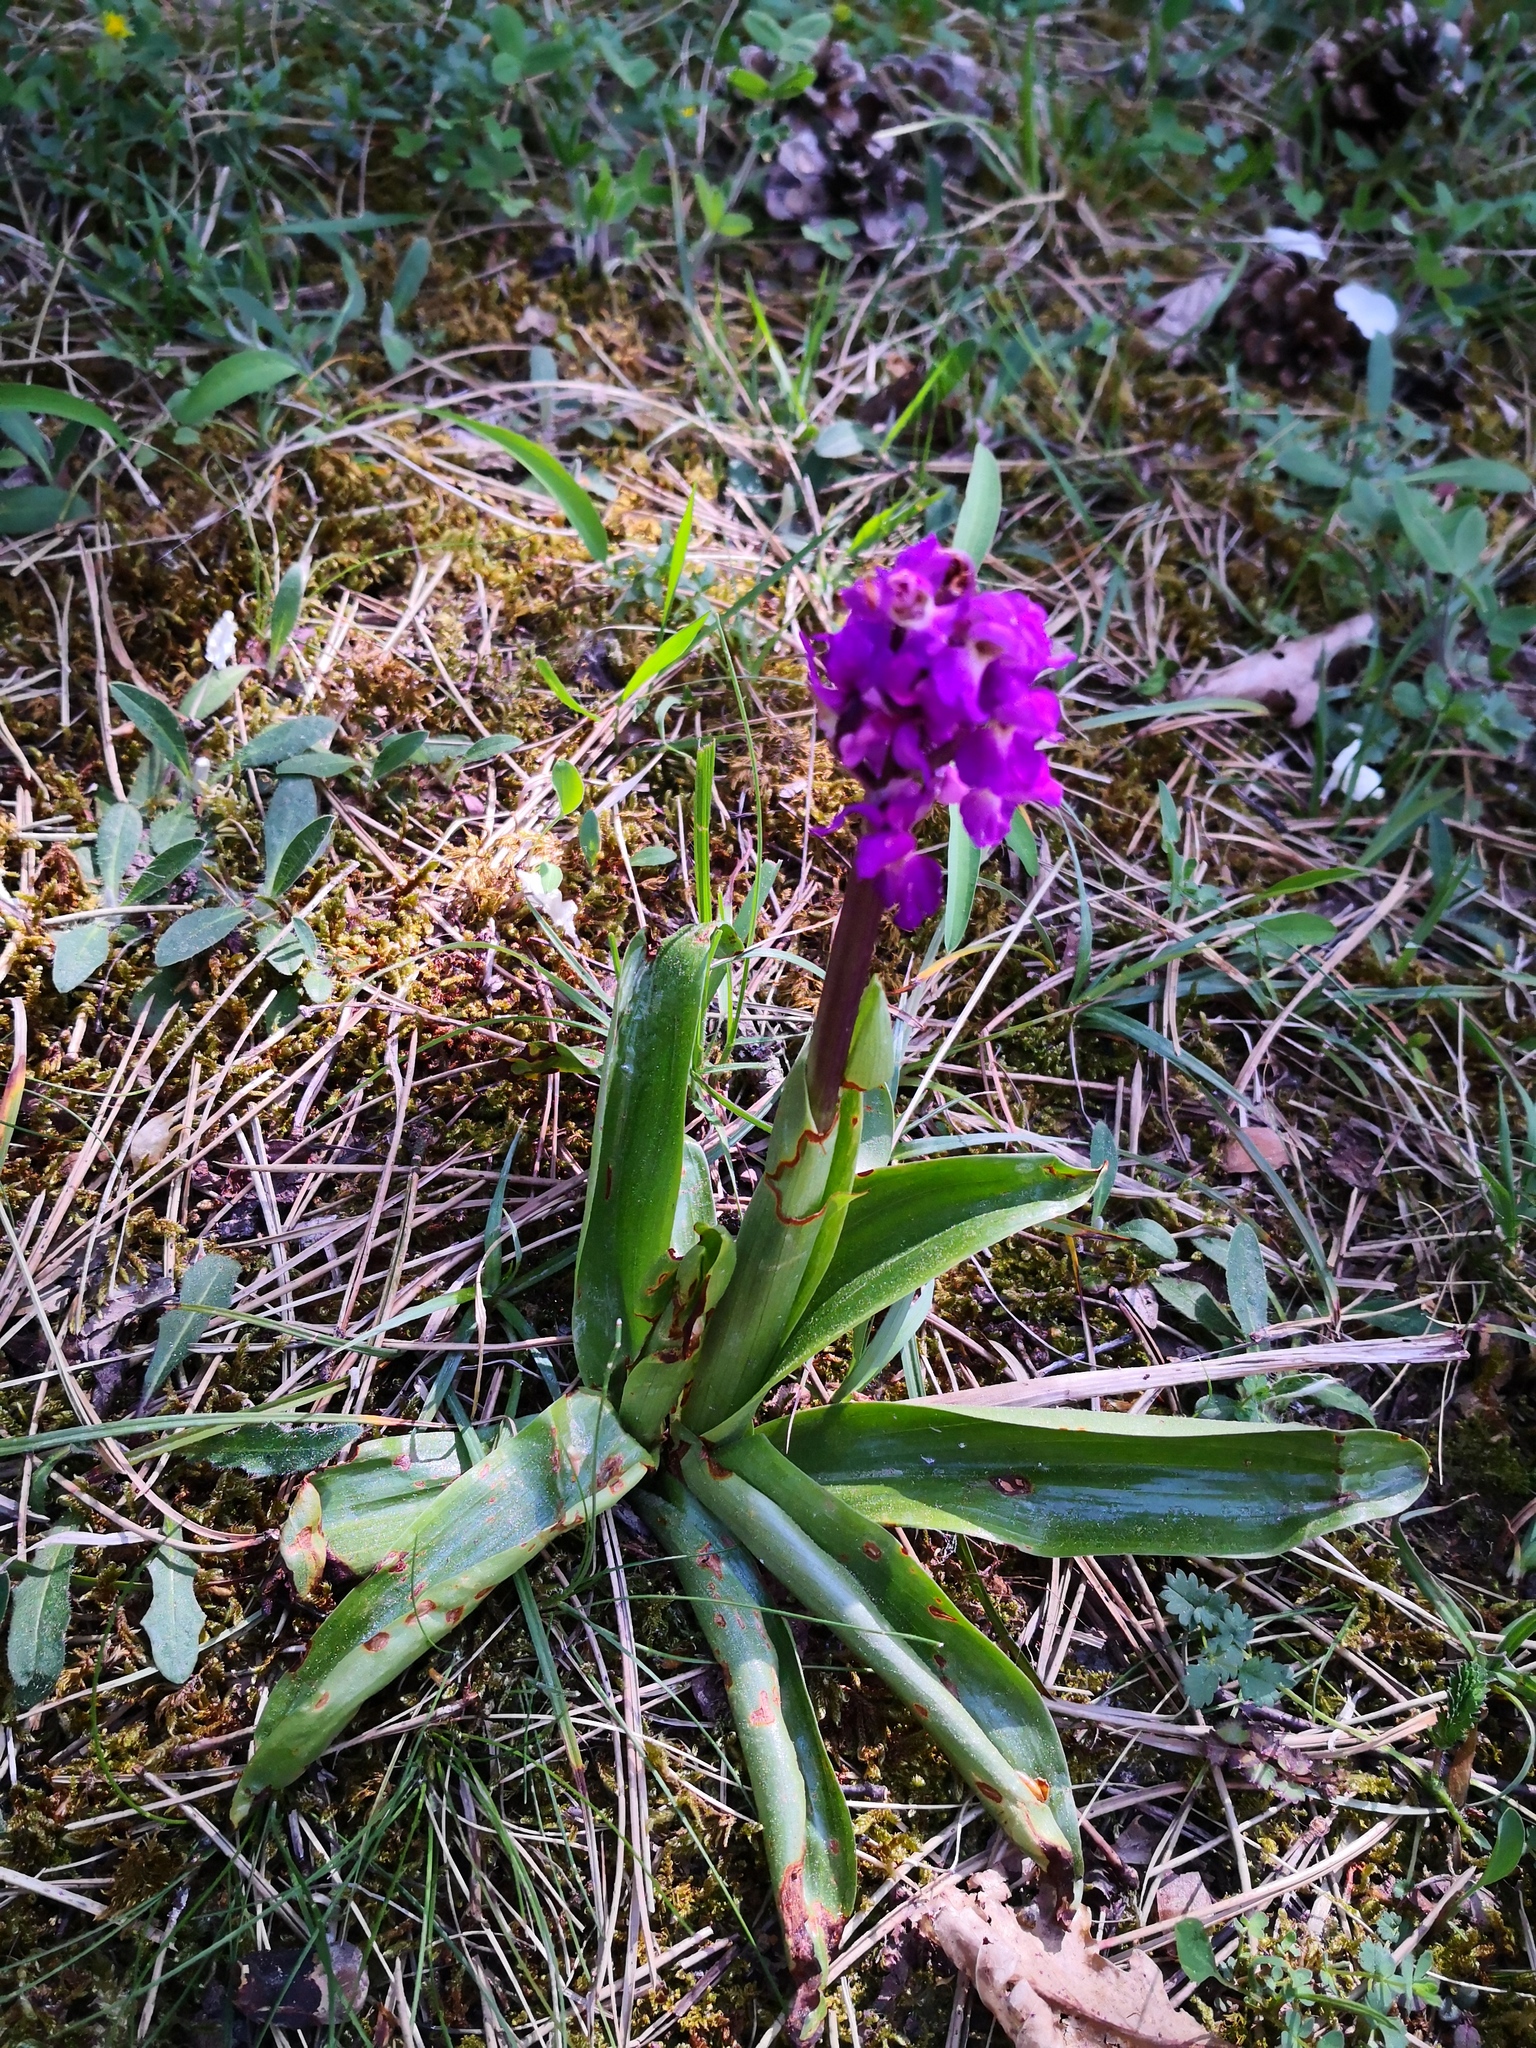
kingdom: Plantae
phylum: Tracheophyta
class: Liliopsida
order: Asparagales
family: Orchidaceae
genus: Orchis
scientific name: Orchis mascula
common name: Early-purple orchid
